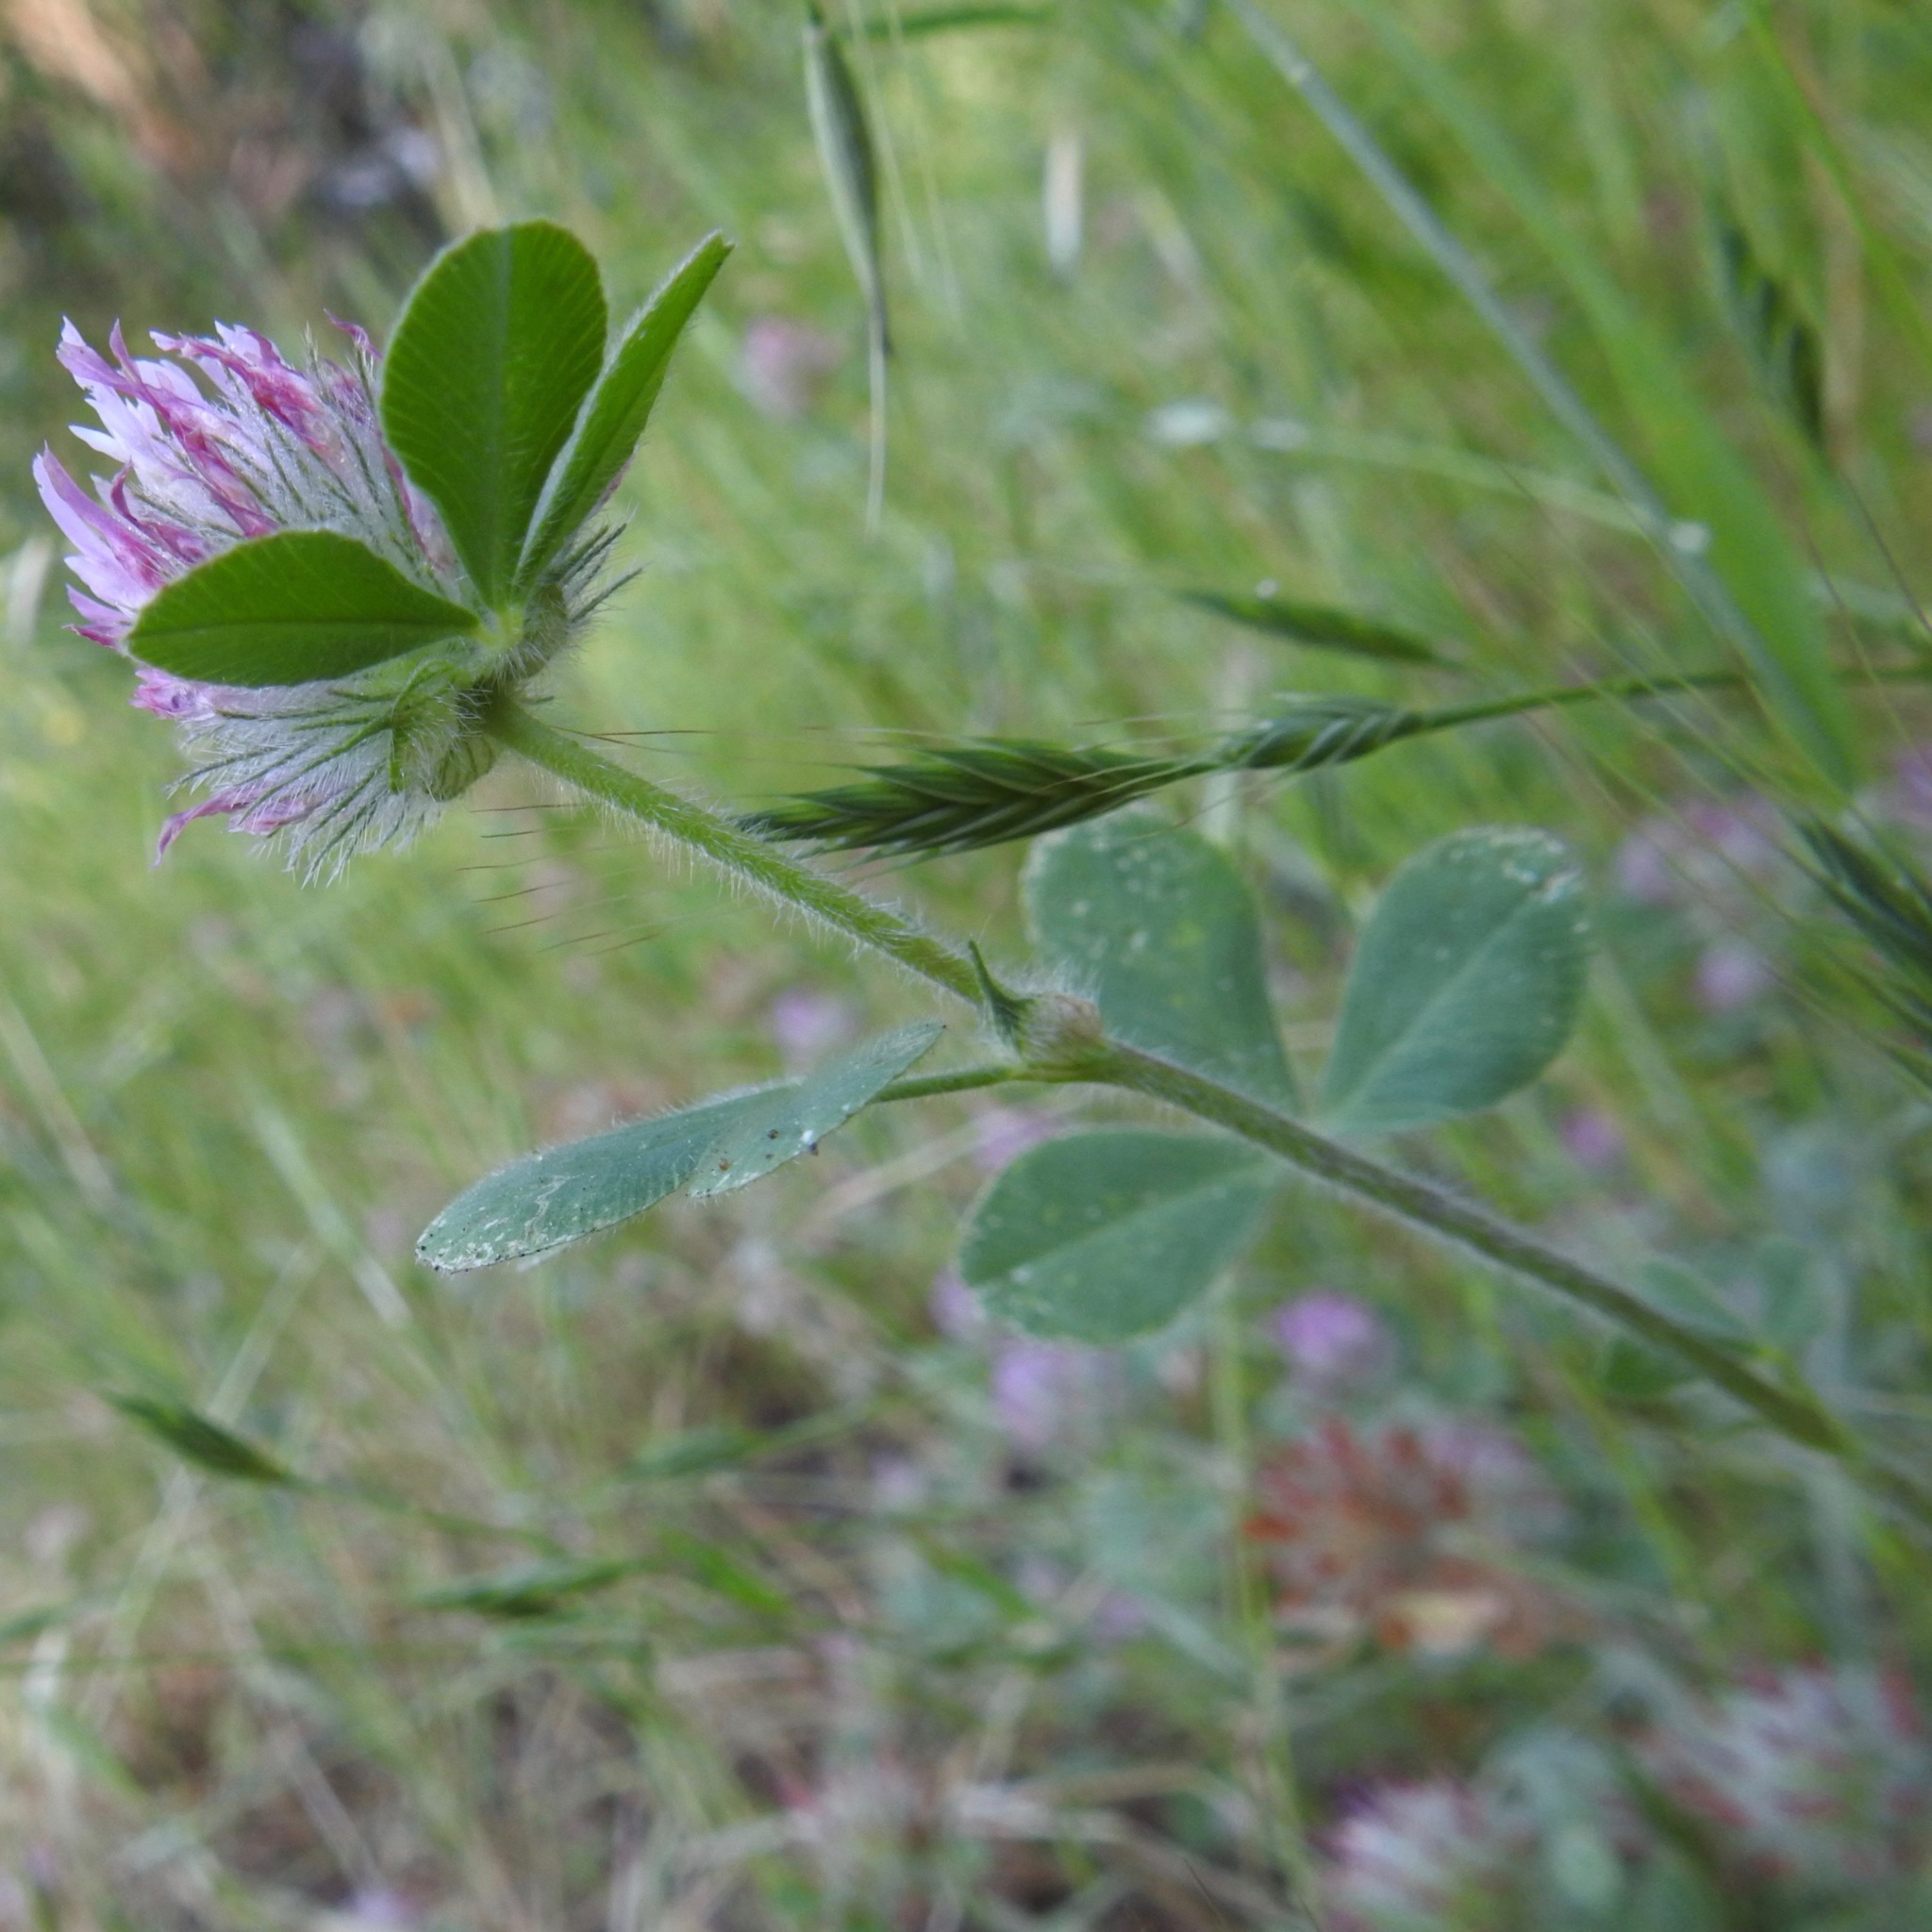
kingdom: Plantae
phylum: Tracheophyta
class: Magnoliopsida
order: Fabales
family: Fabaceae
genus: Trifolium
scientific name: Trifolium hirtum
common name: Rose clover
